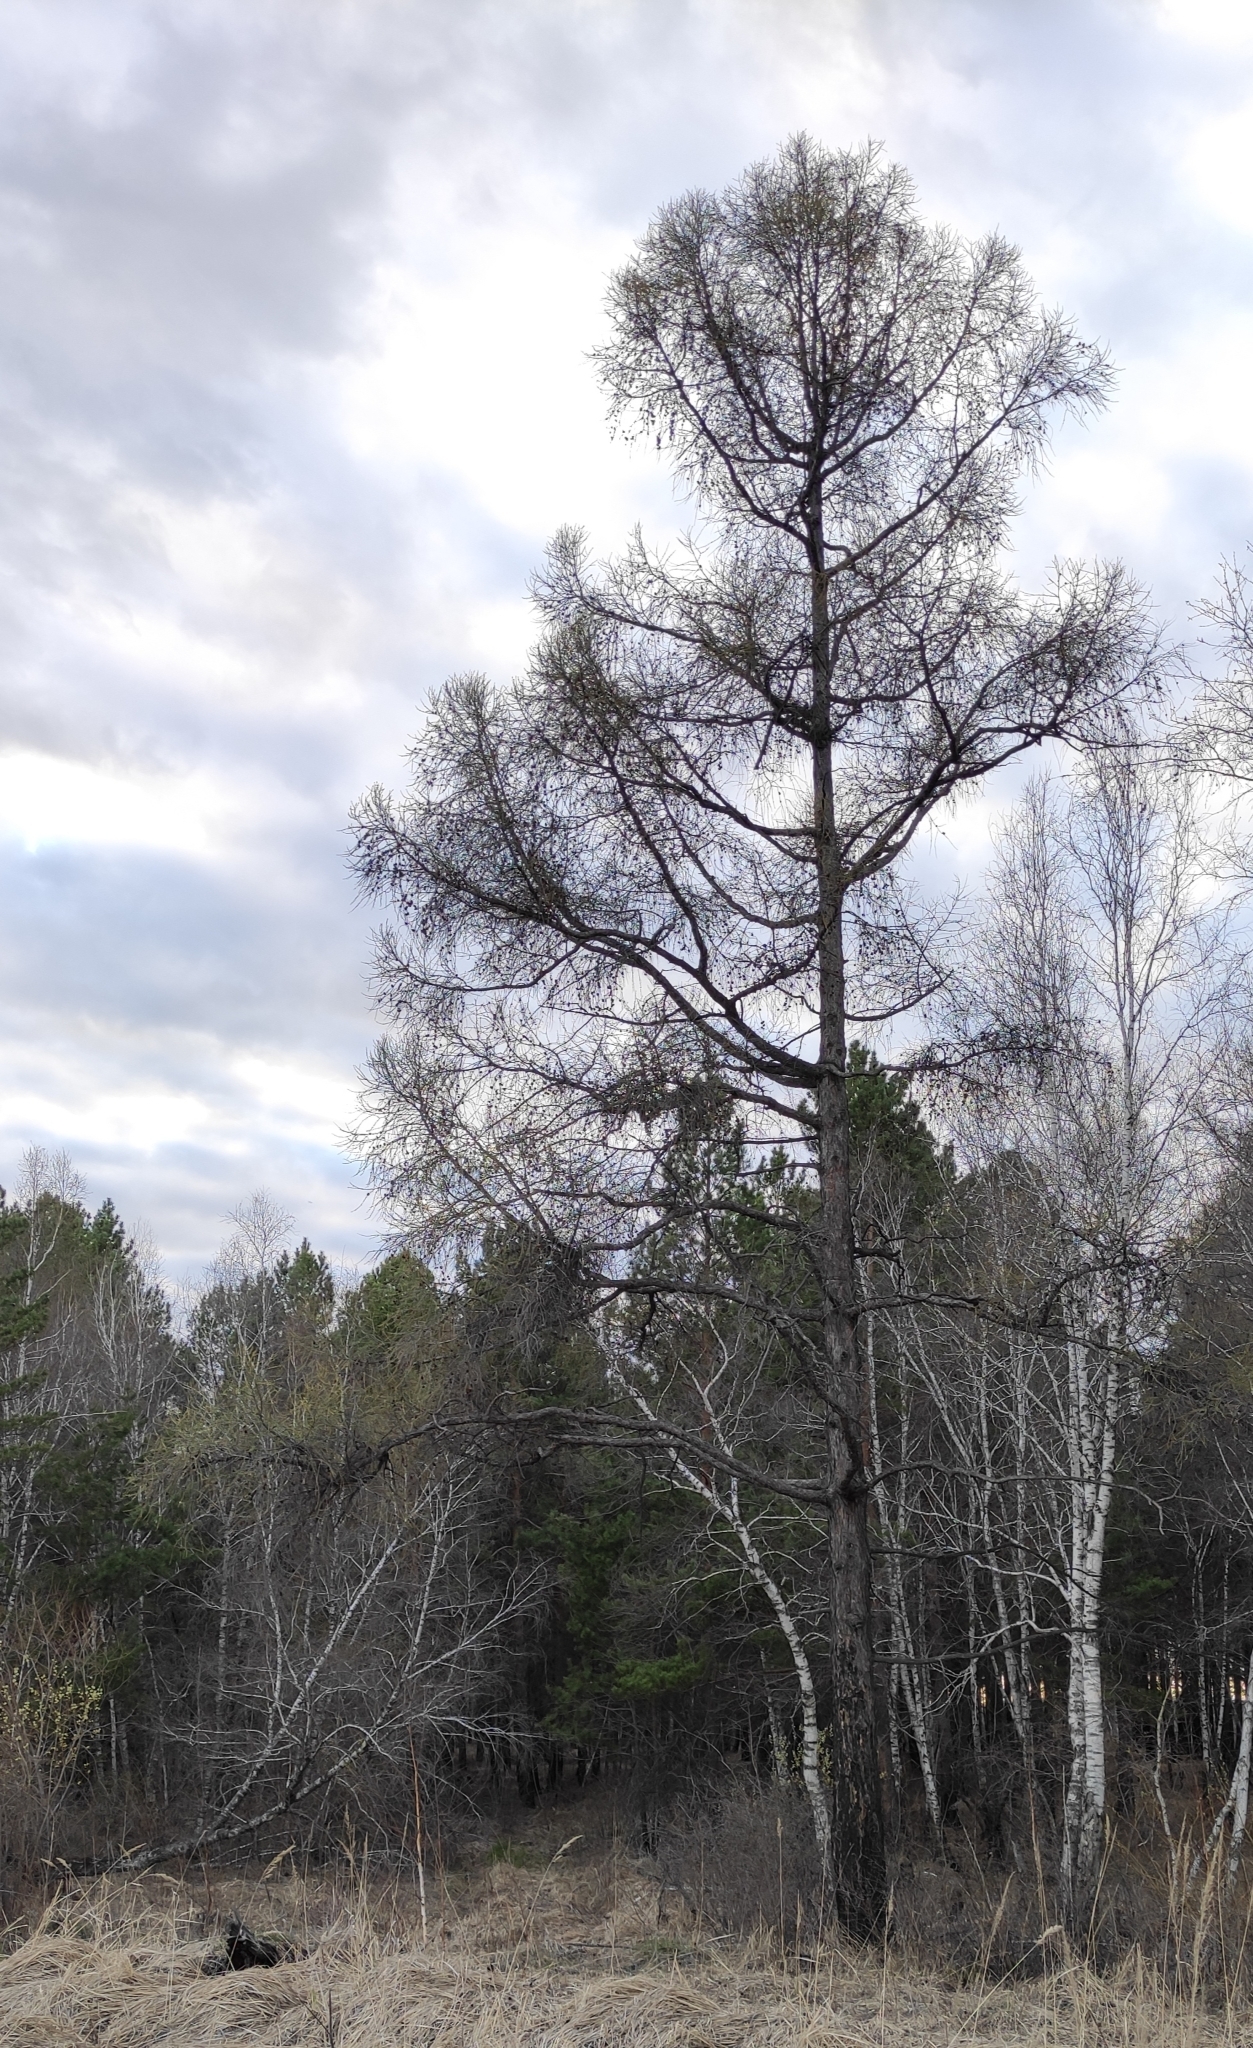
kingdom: Plantae
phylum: Tracheophyta
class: Pinopsida
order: Pinales
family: Pinaceae
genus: Larix
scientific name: Larix sibirica
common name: Siberian larch
